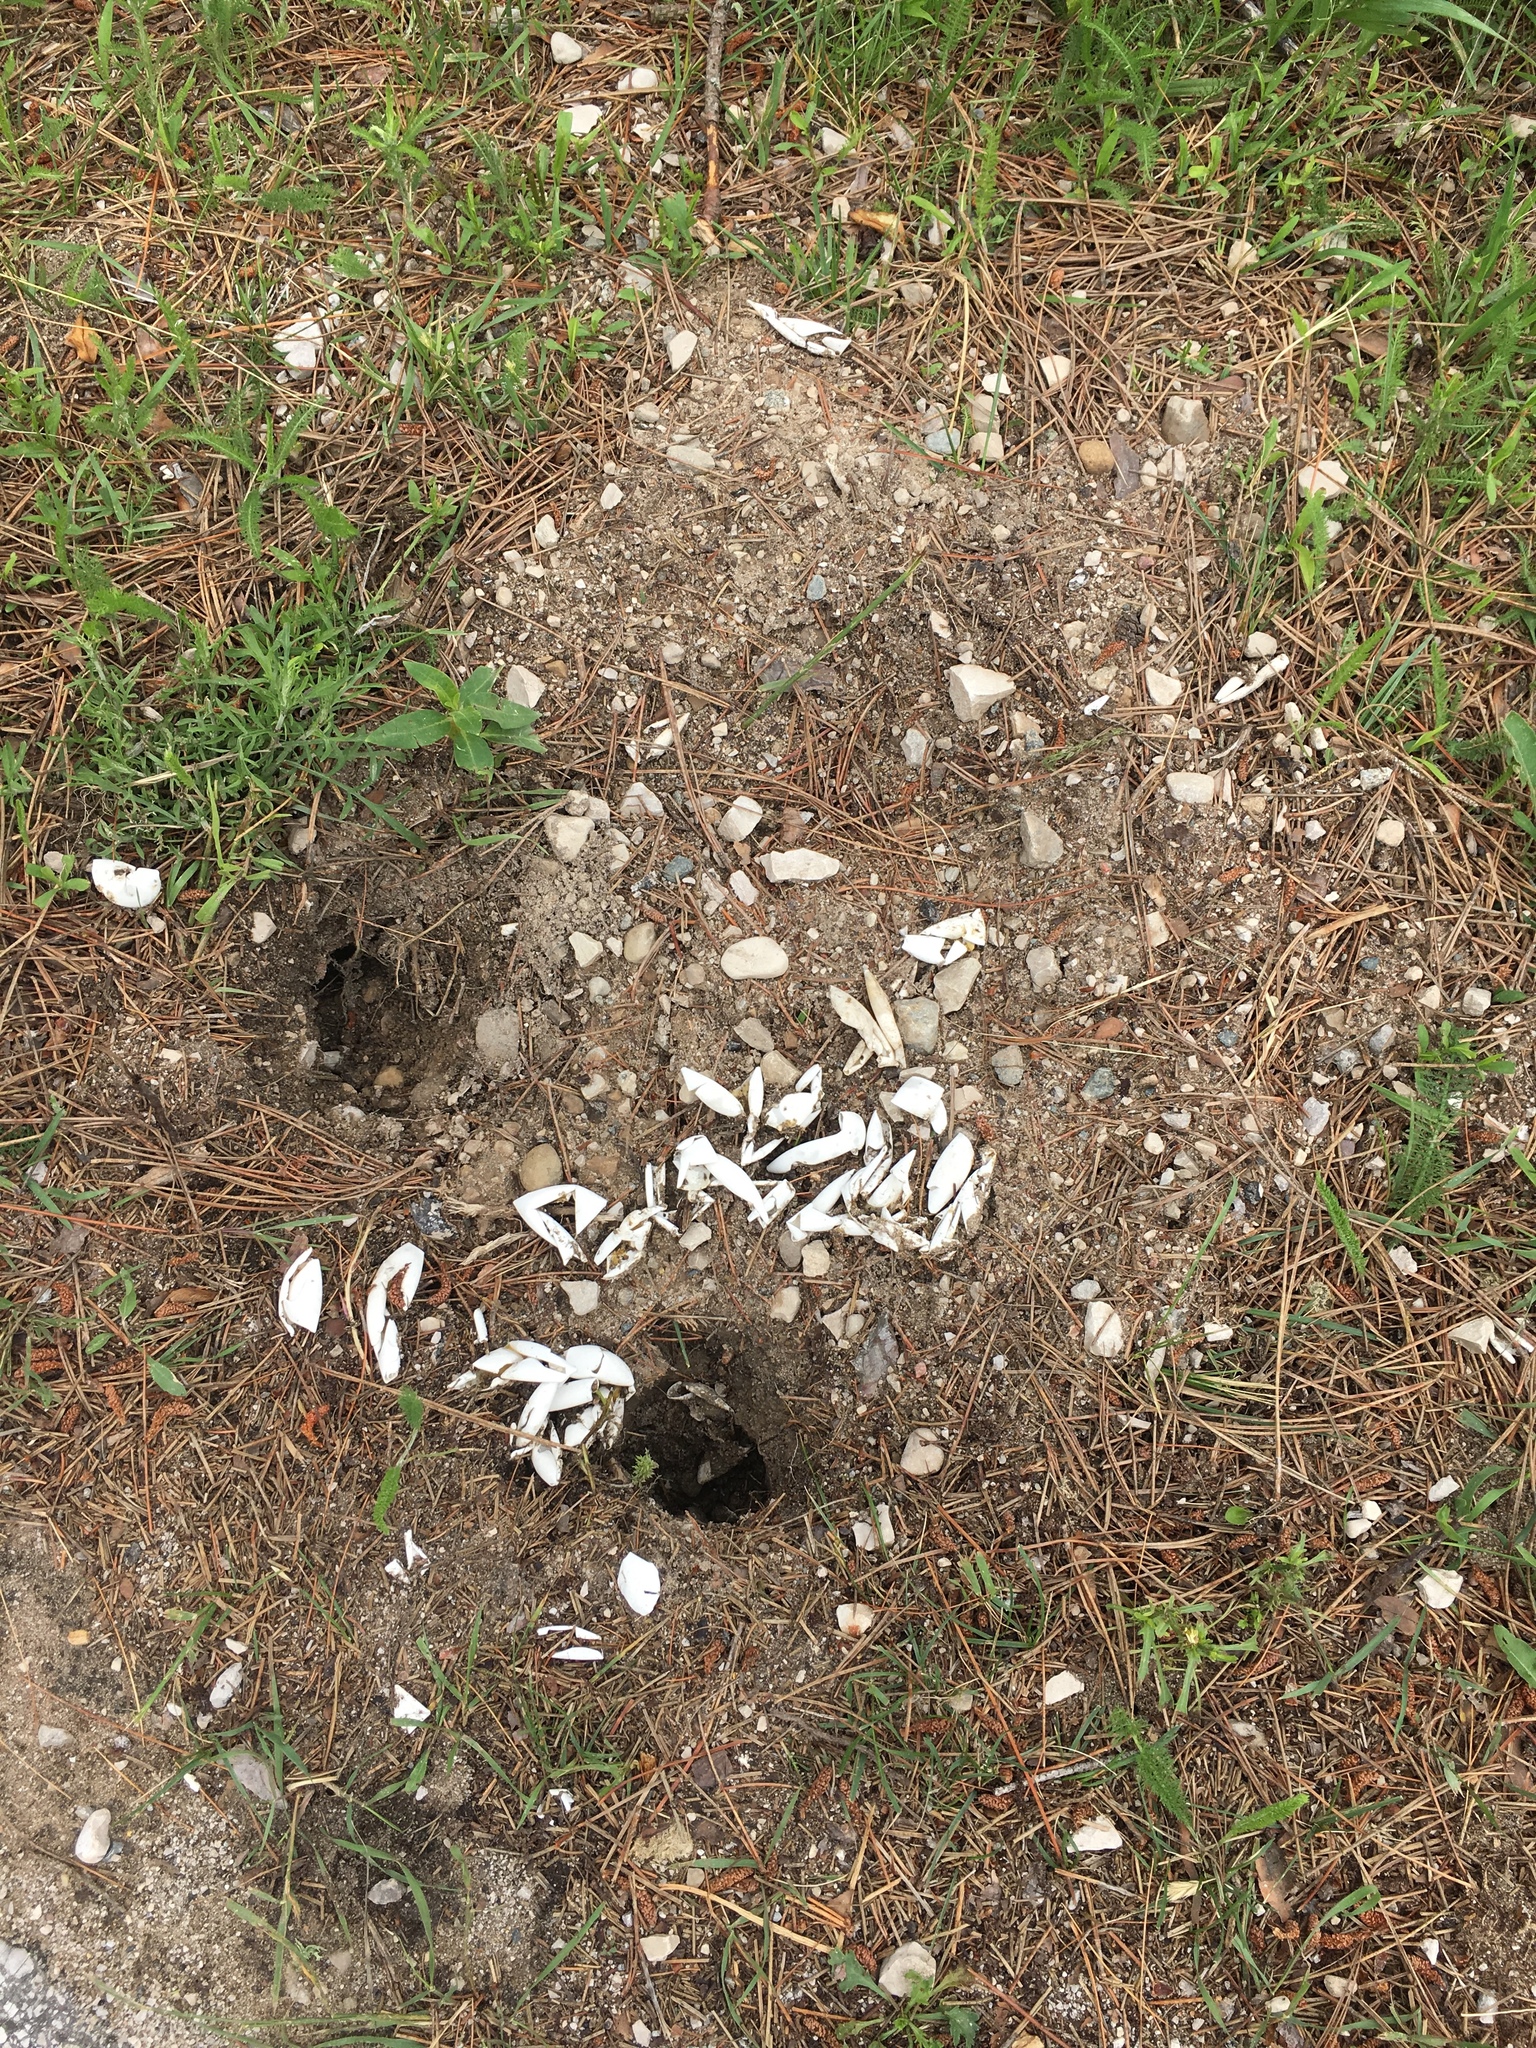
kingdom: Animalia
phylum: Chordata
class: Testudines
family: Chelydridae
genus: Chelydra
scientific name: Chelydra serpentina
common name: Common snapping turtle
